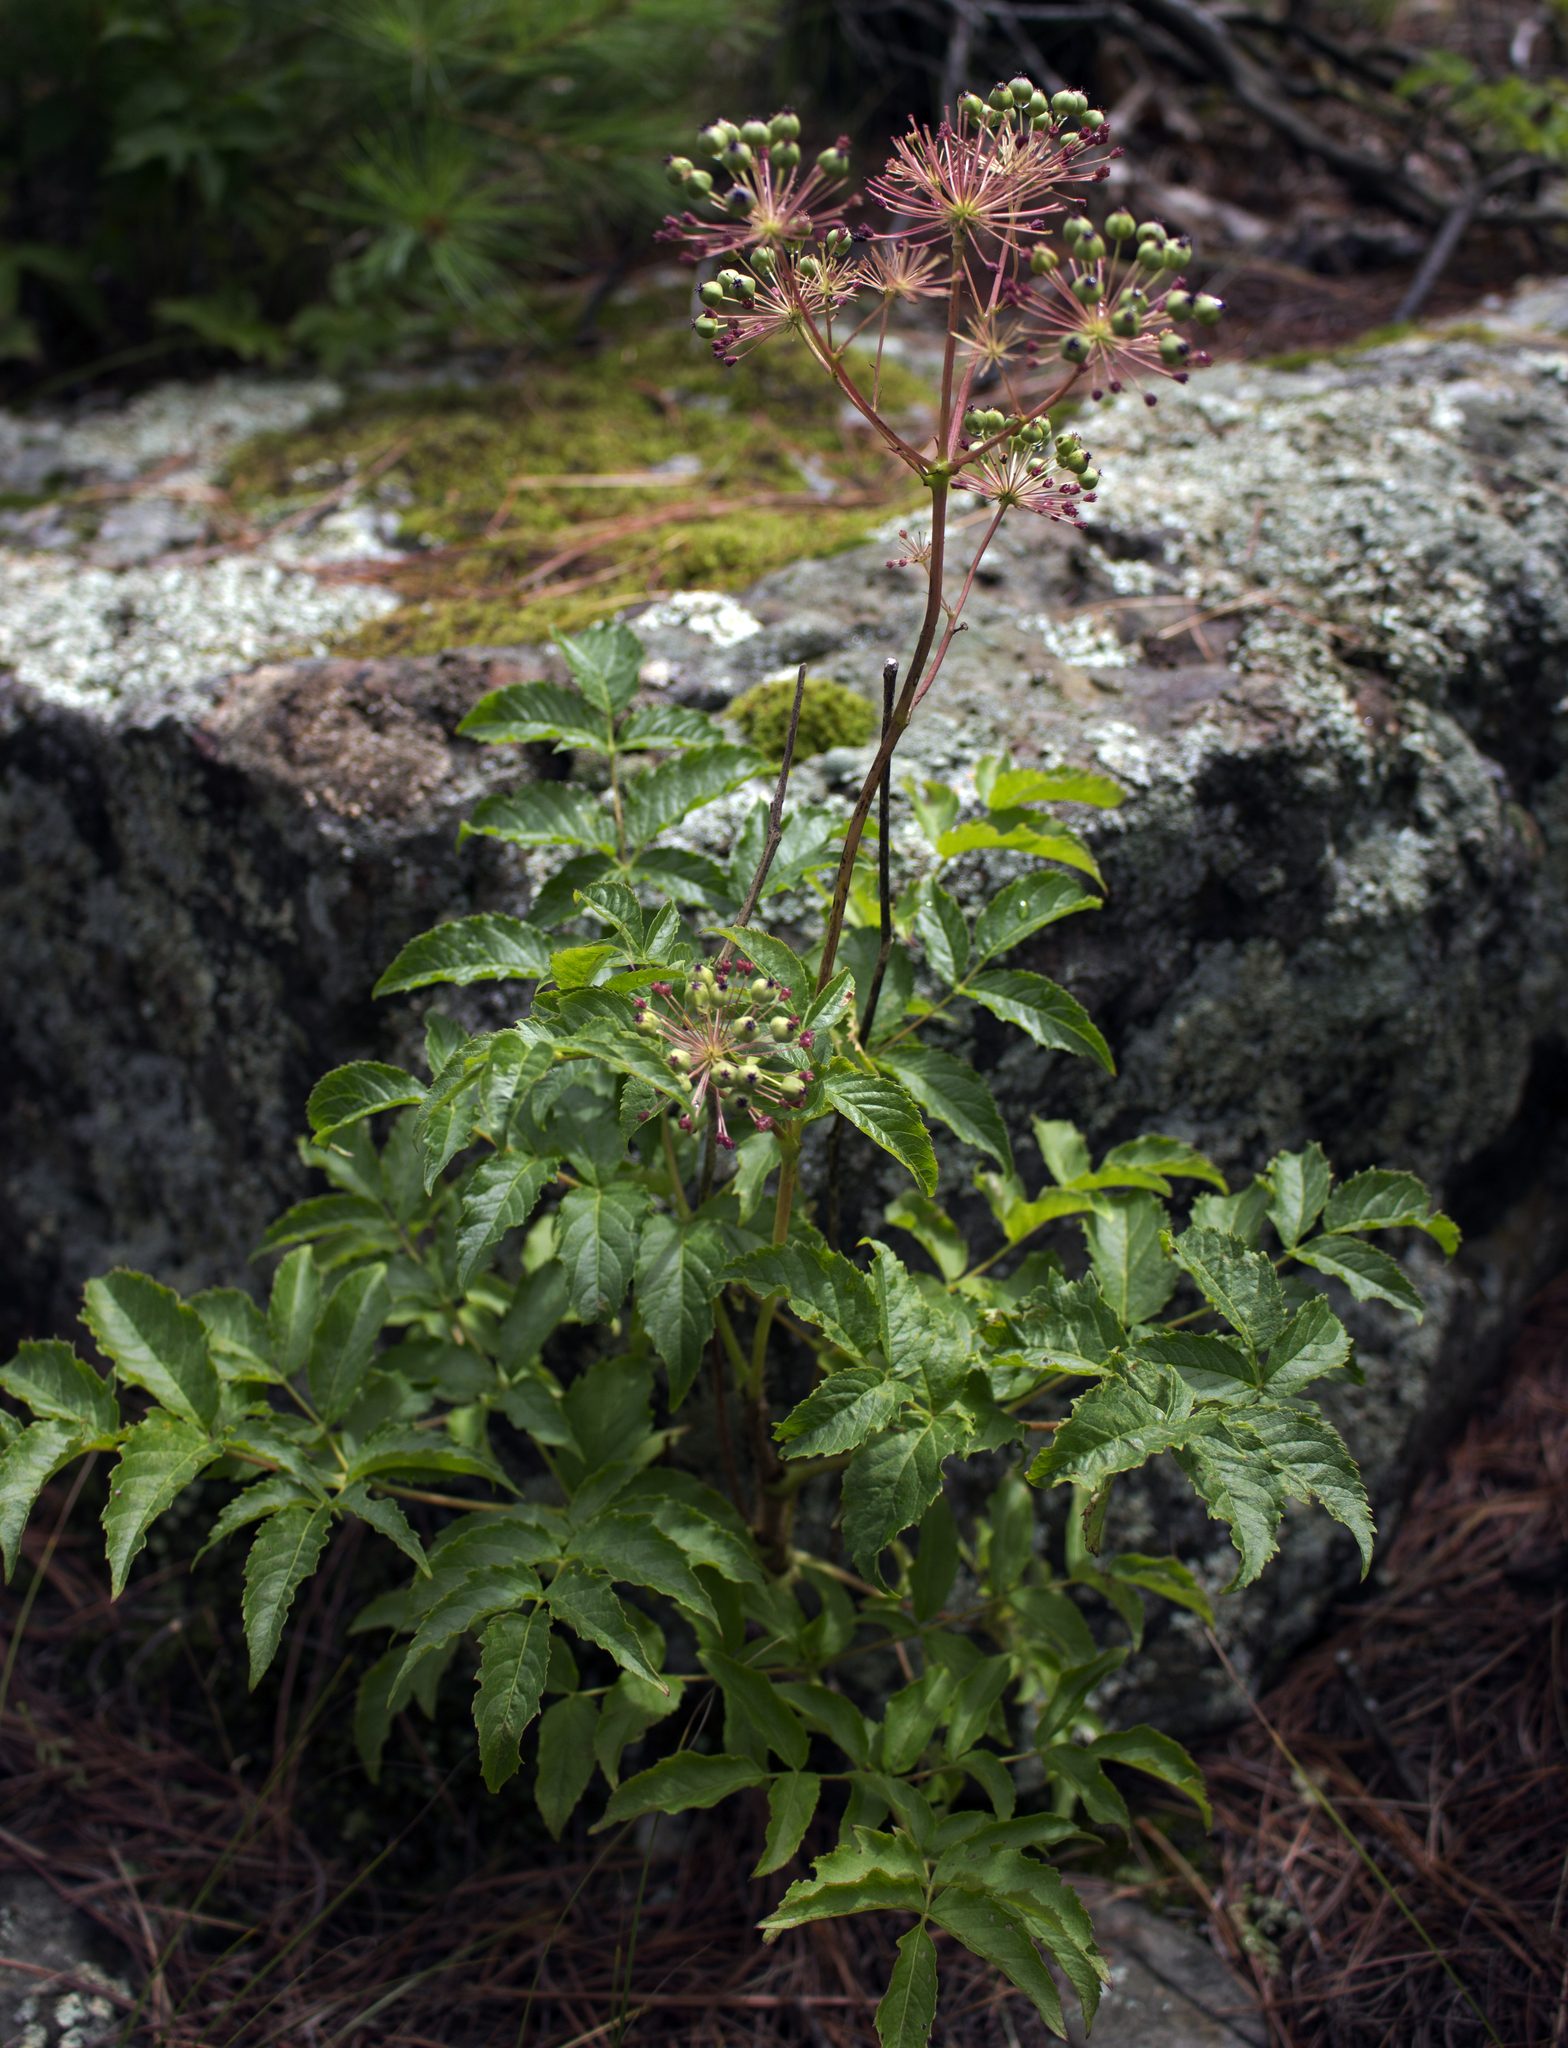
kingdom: Plantae
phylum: Tracheophyta
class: Magnoliopsida
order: Apiales
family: Araliaceae
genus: Aralia
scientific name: Aralia hispida
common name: Bristly sarsaparilla
